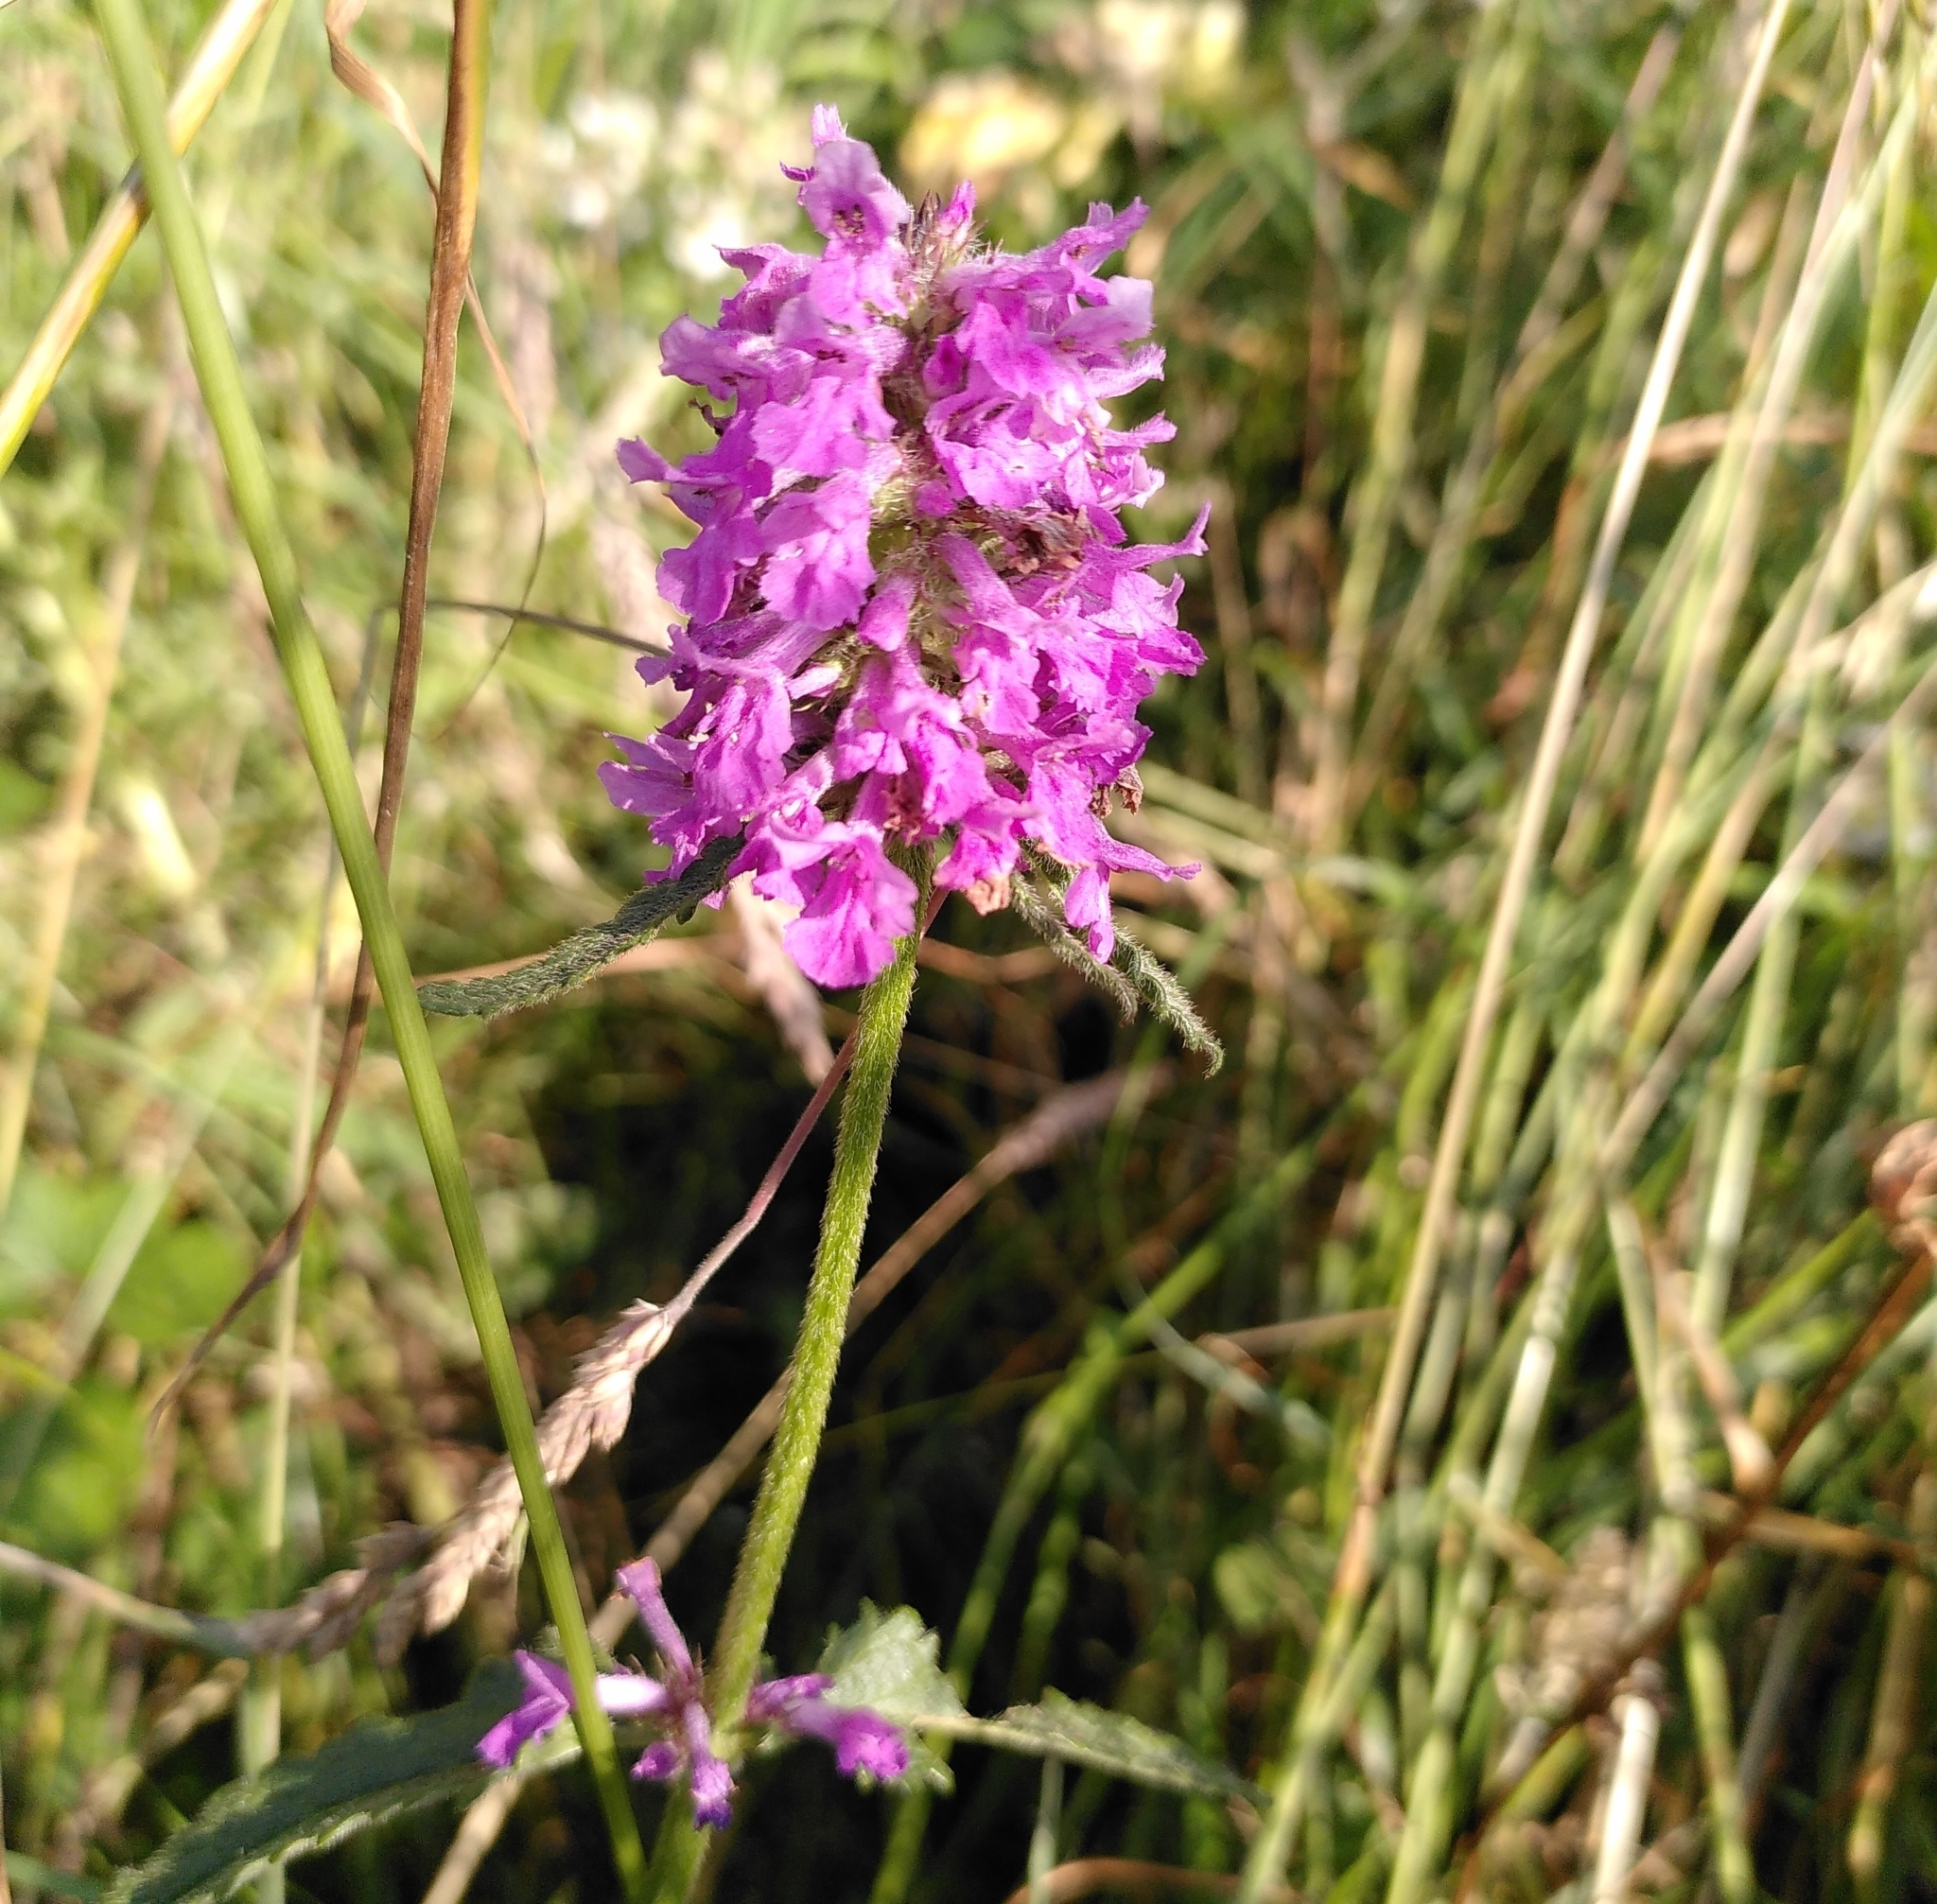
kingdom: Plantae
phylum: Tracheophyta
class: Magnoliopsida
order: Lamiales
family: Lamiaceae
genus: Betonica
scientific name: Betonica officinalis
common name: Bishop's-wort
